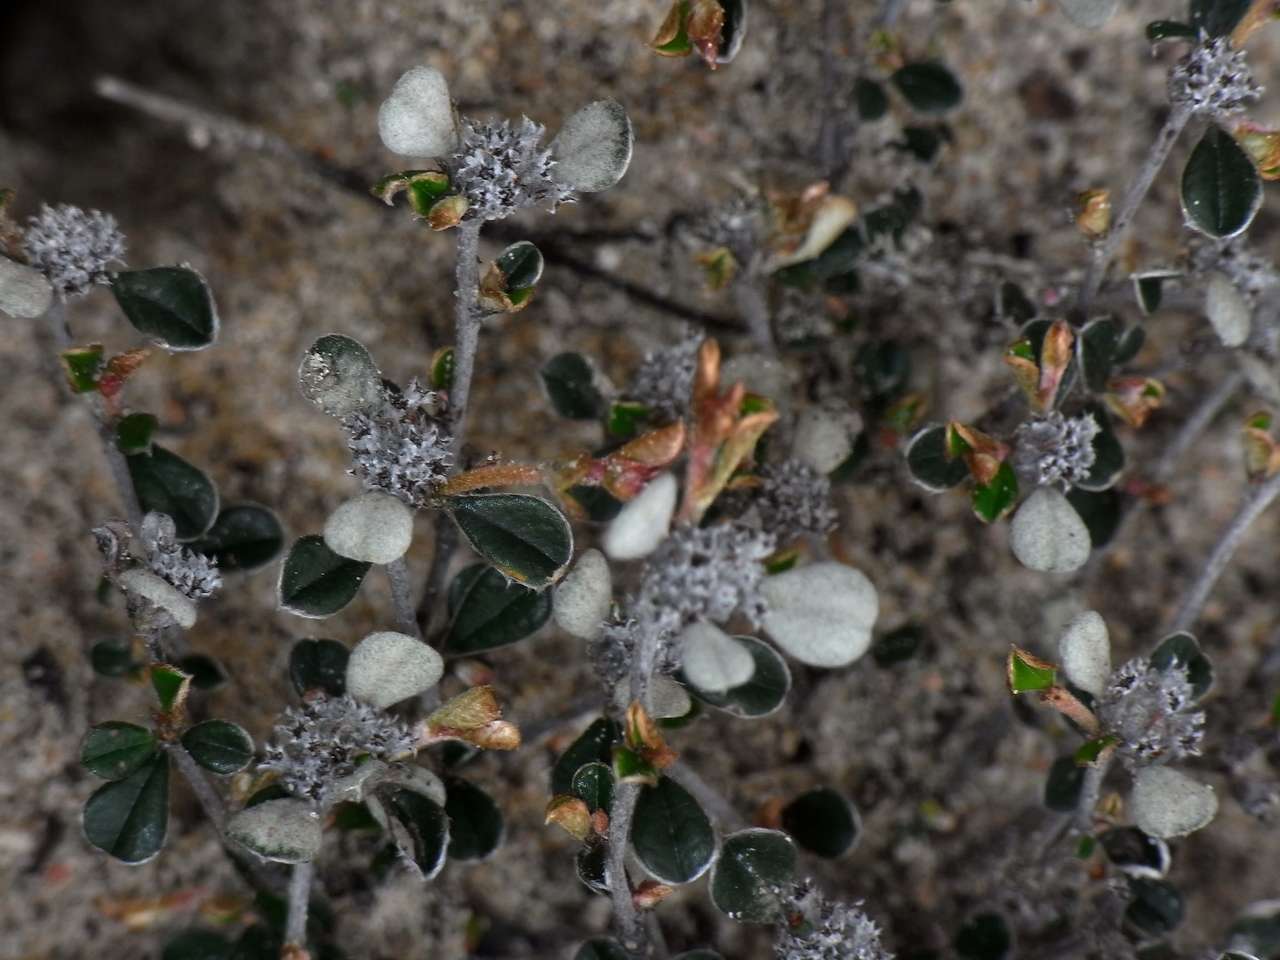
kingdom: Plantae
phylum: Tracheophyta
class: Magnoliopsida
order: Rosales
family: Rhamnaceae
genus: Cryptandra
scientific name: Cryptandra leucophracta
